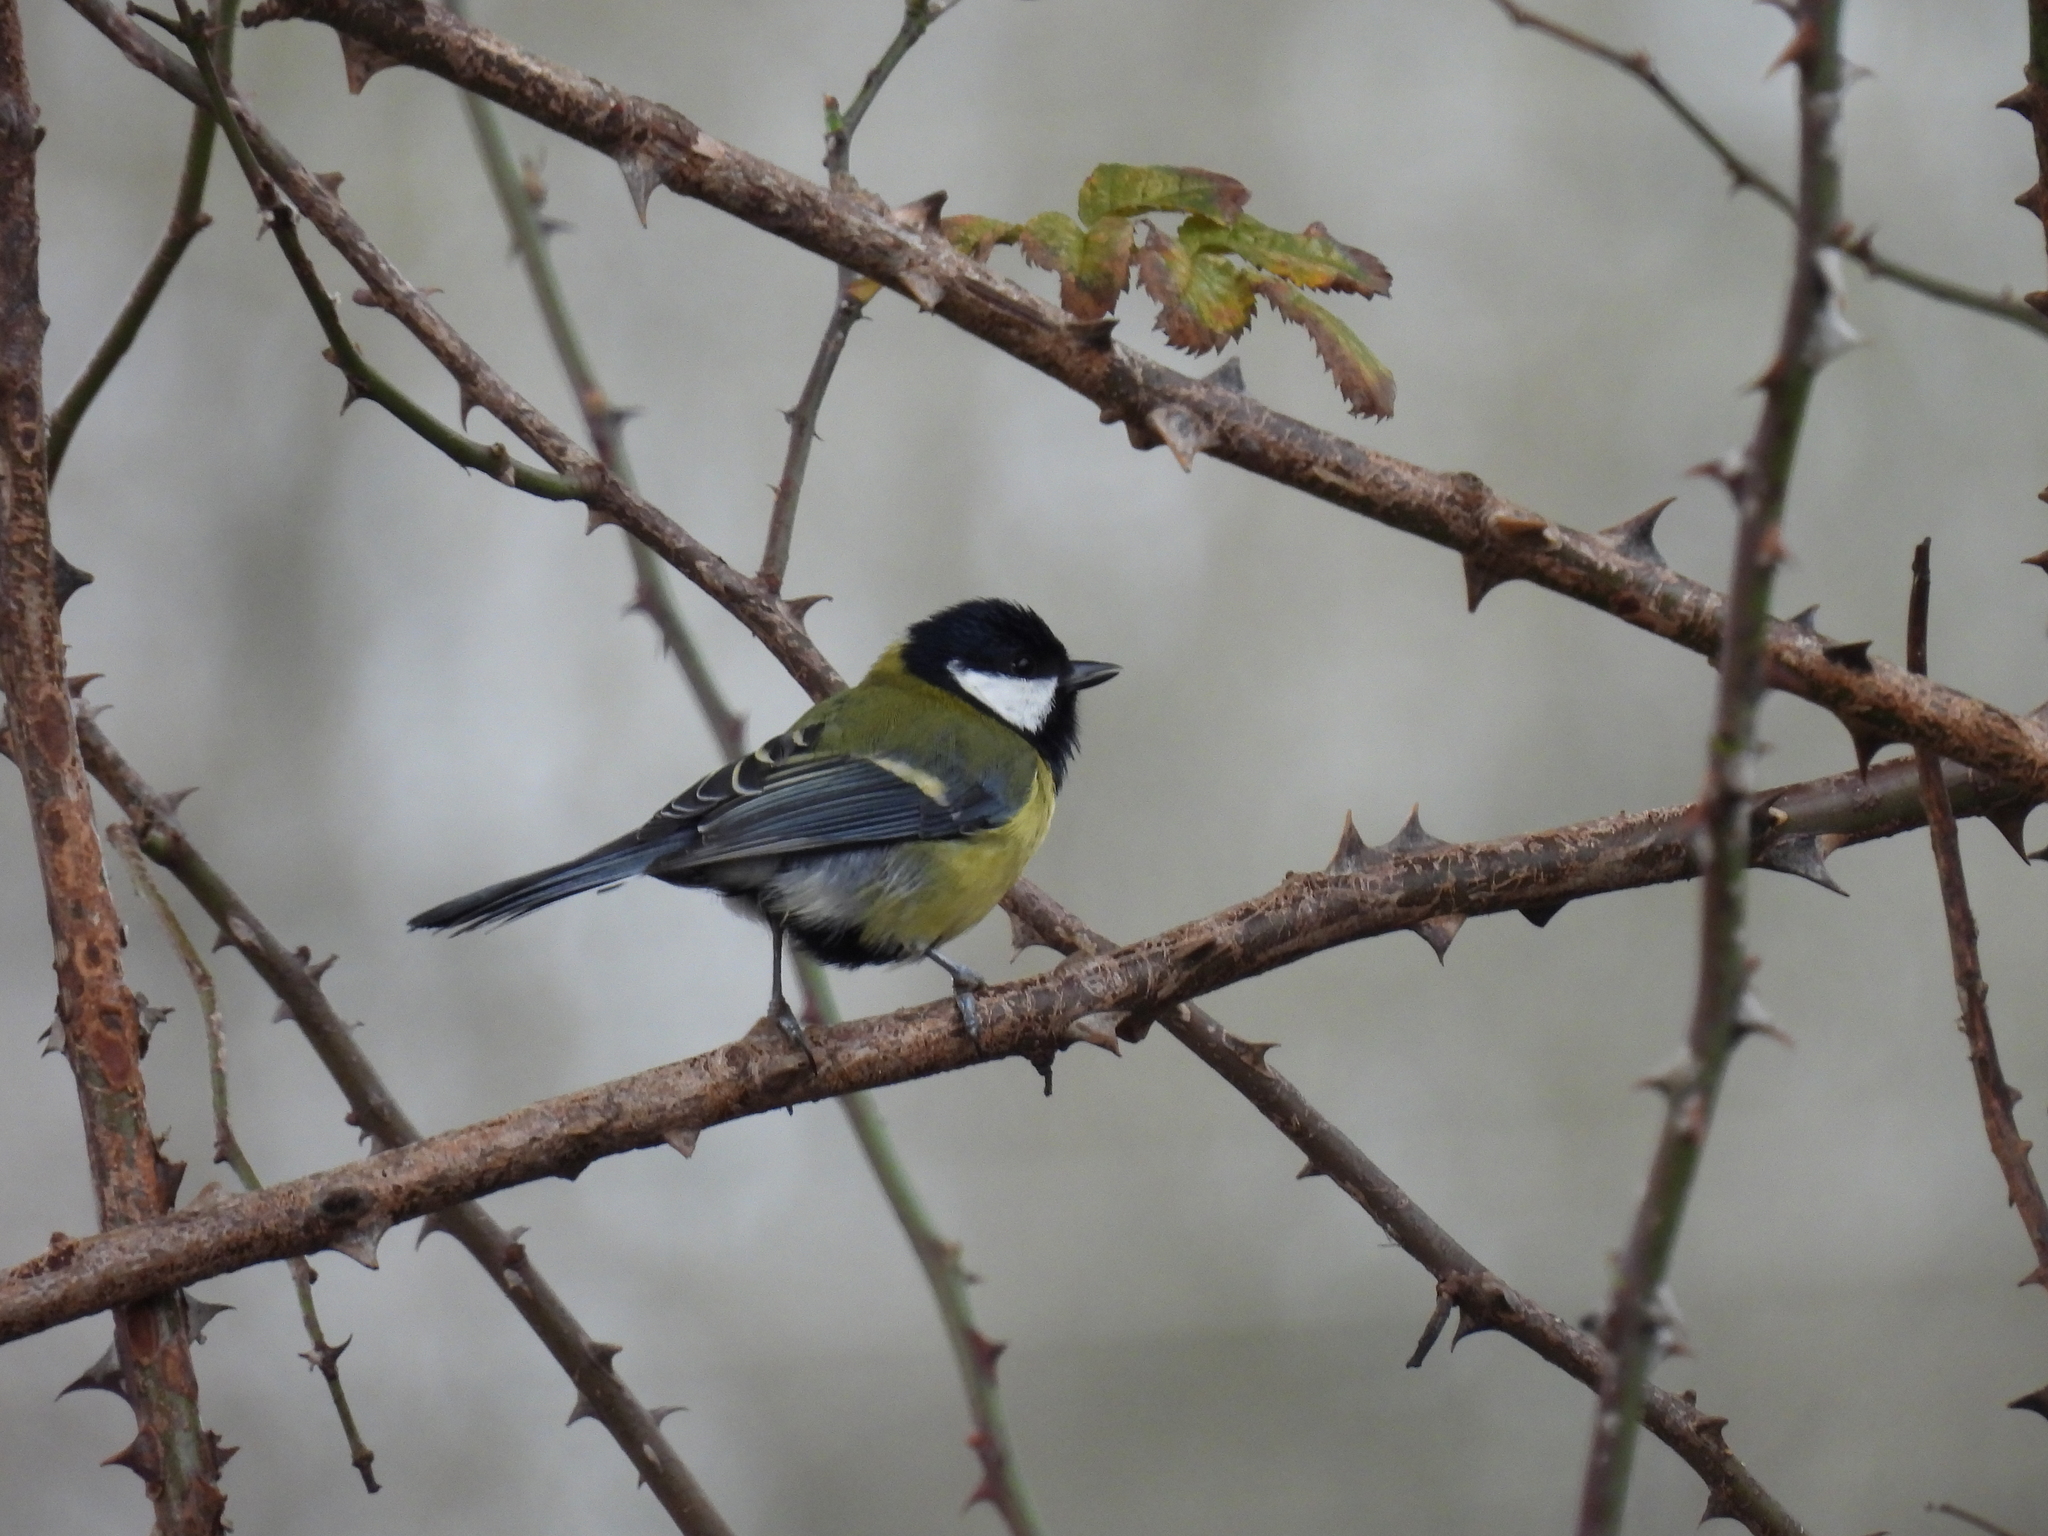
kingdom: Animalia
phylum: Chordata
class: Aves
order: Passeriformes
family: Paridae
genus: Parus
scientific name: Parus major
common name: Great tit
